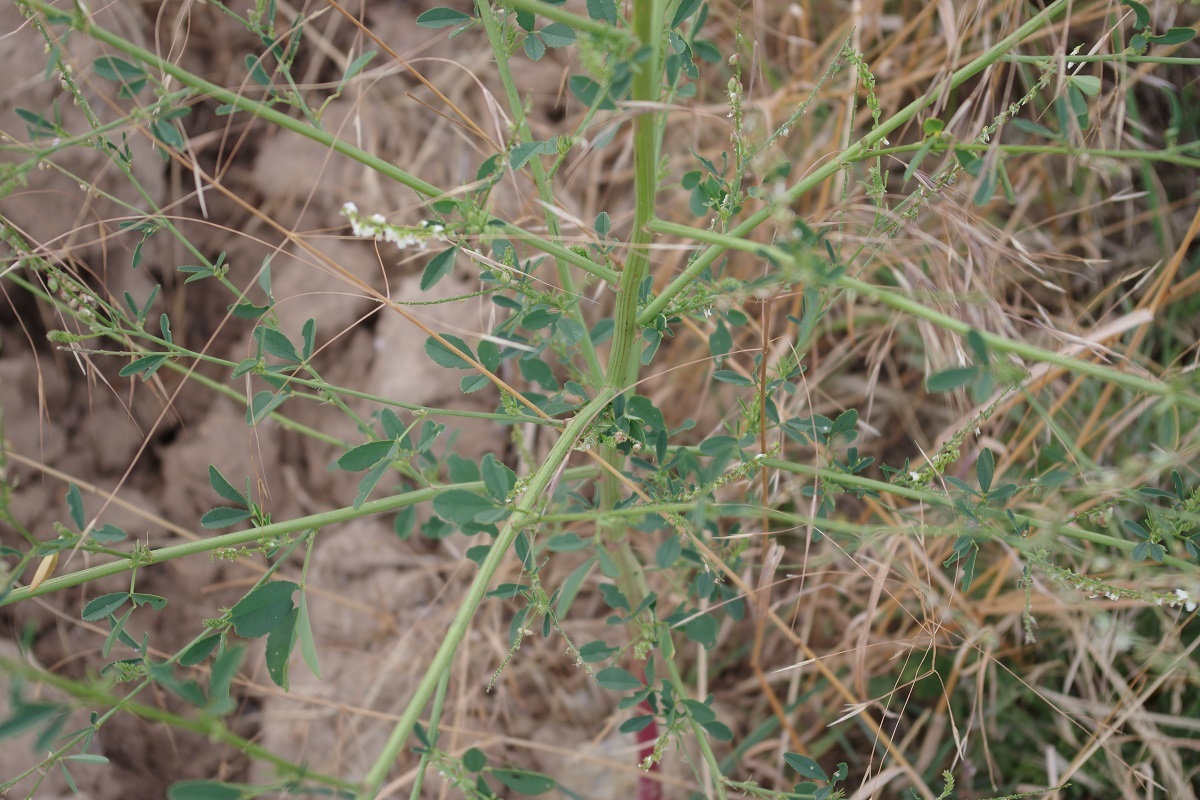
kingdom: Plantae
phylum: Tracheophyta
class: Magnoliopsida
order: Fabales
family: Fabaceae
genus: Melilotus
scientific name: Melilotus albus
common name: White melilot
